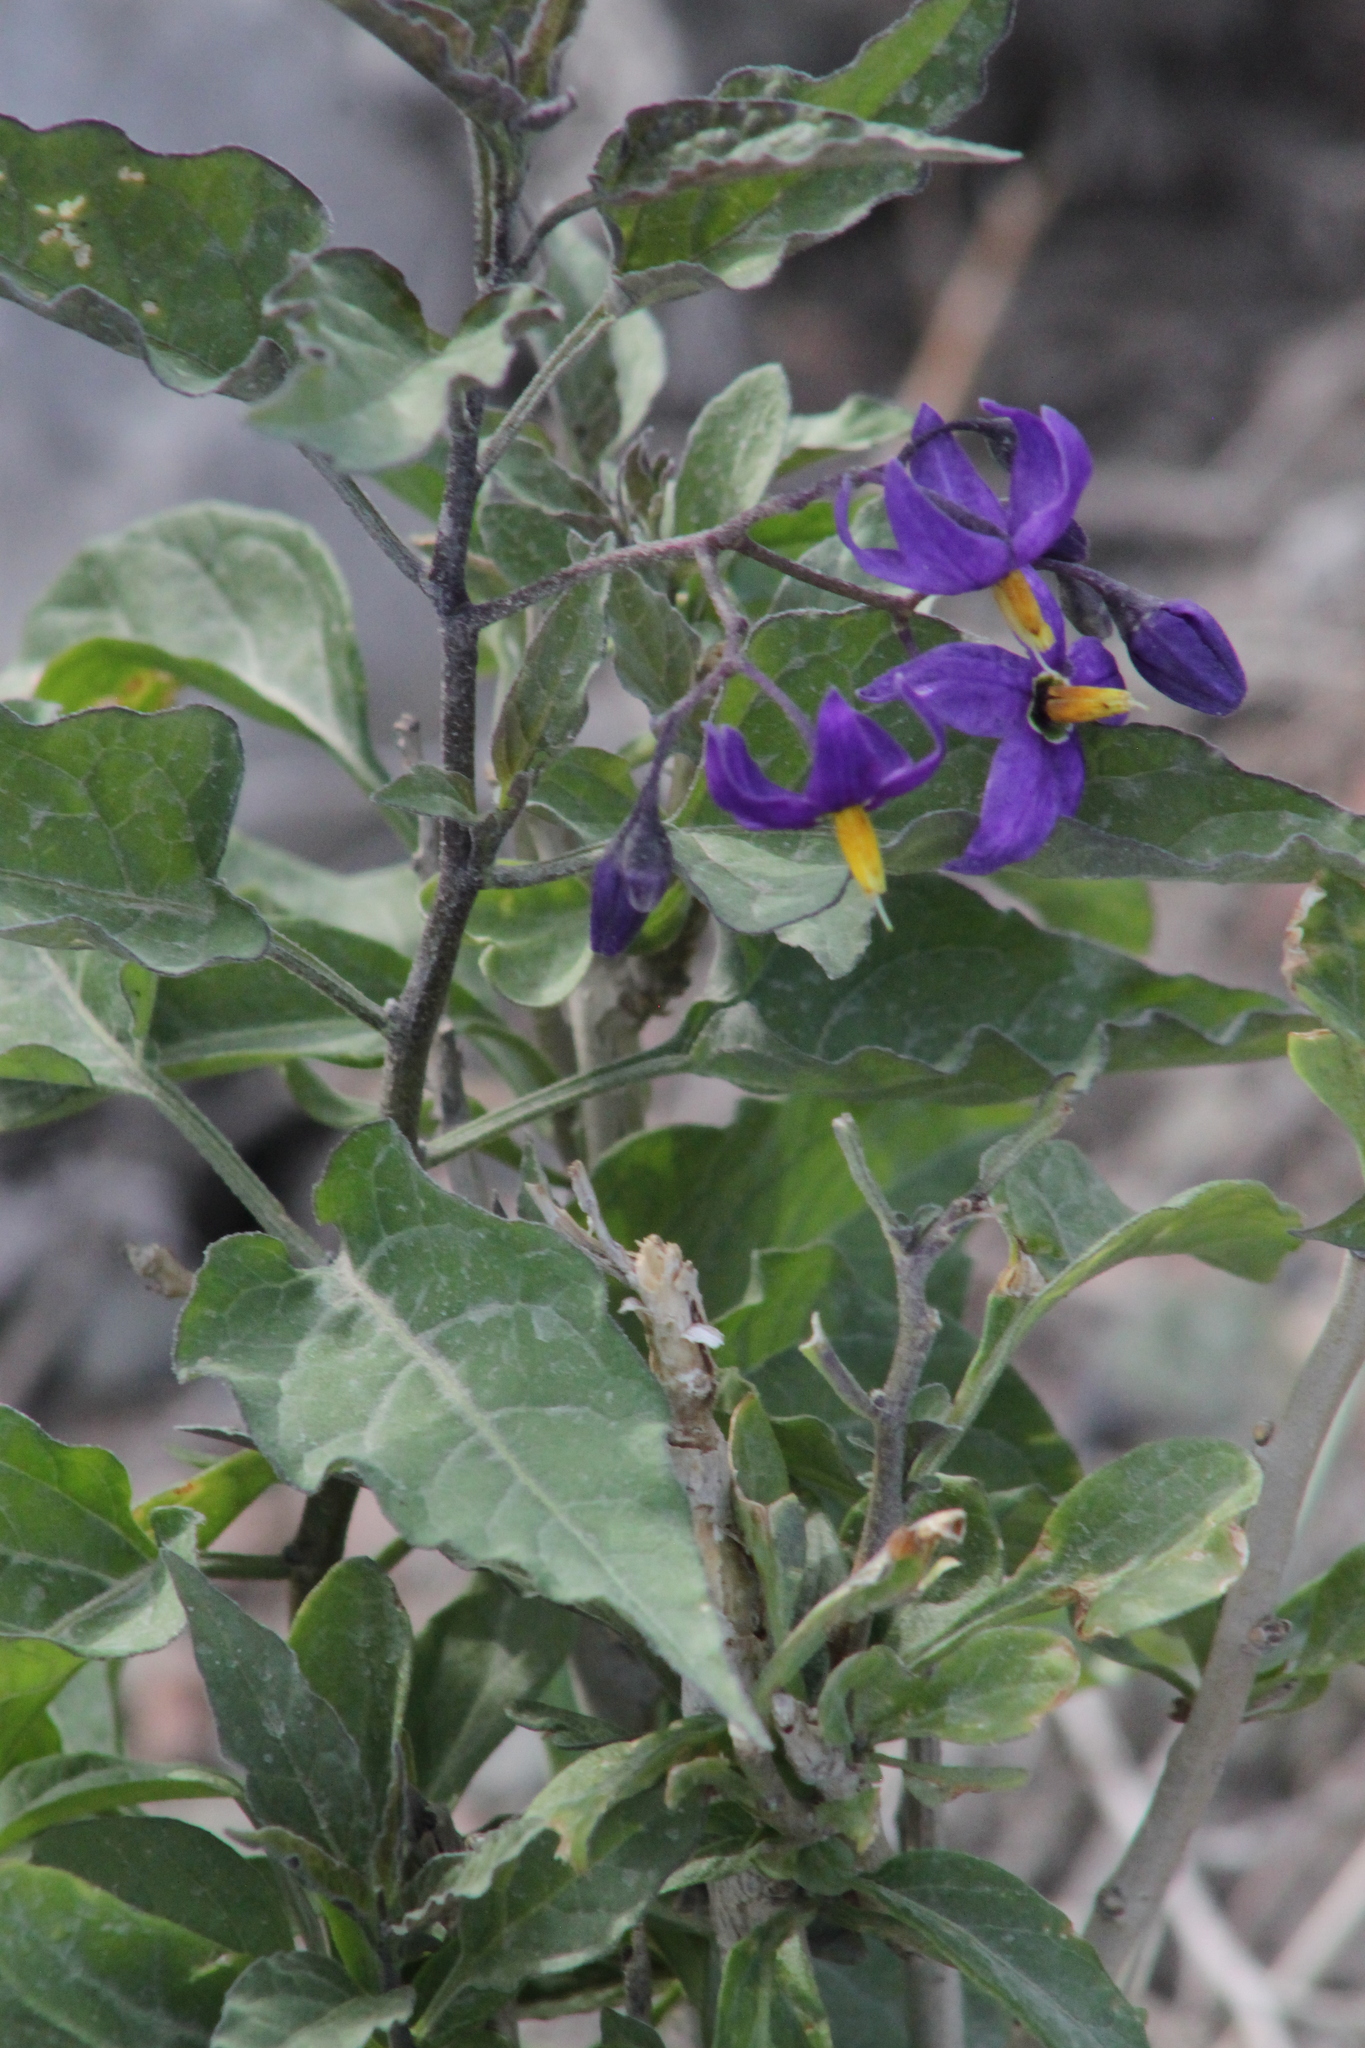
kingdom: Plantae
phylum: Tracheophyta
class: Magnoliopsida
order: Solanales
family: Solanaceae
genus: Solanum
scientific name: Solanum dulcamara
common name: Climbing nightshade
